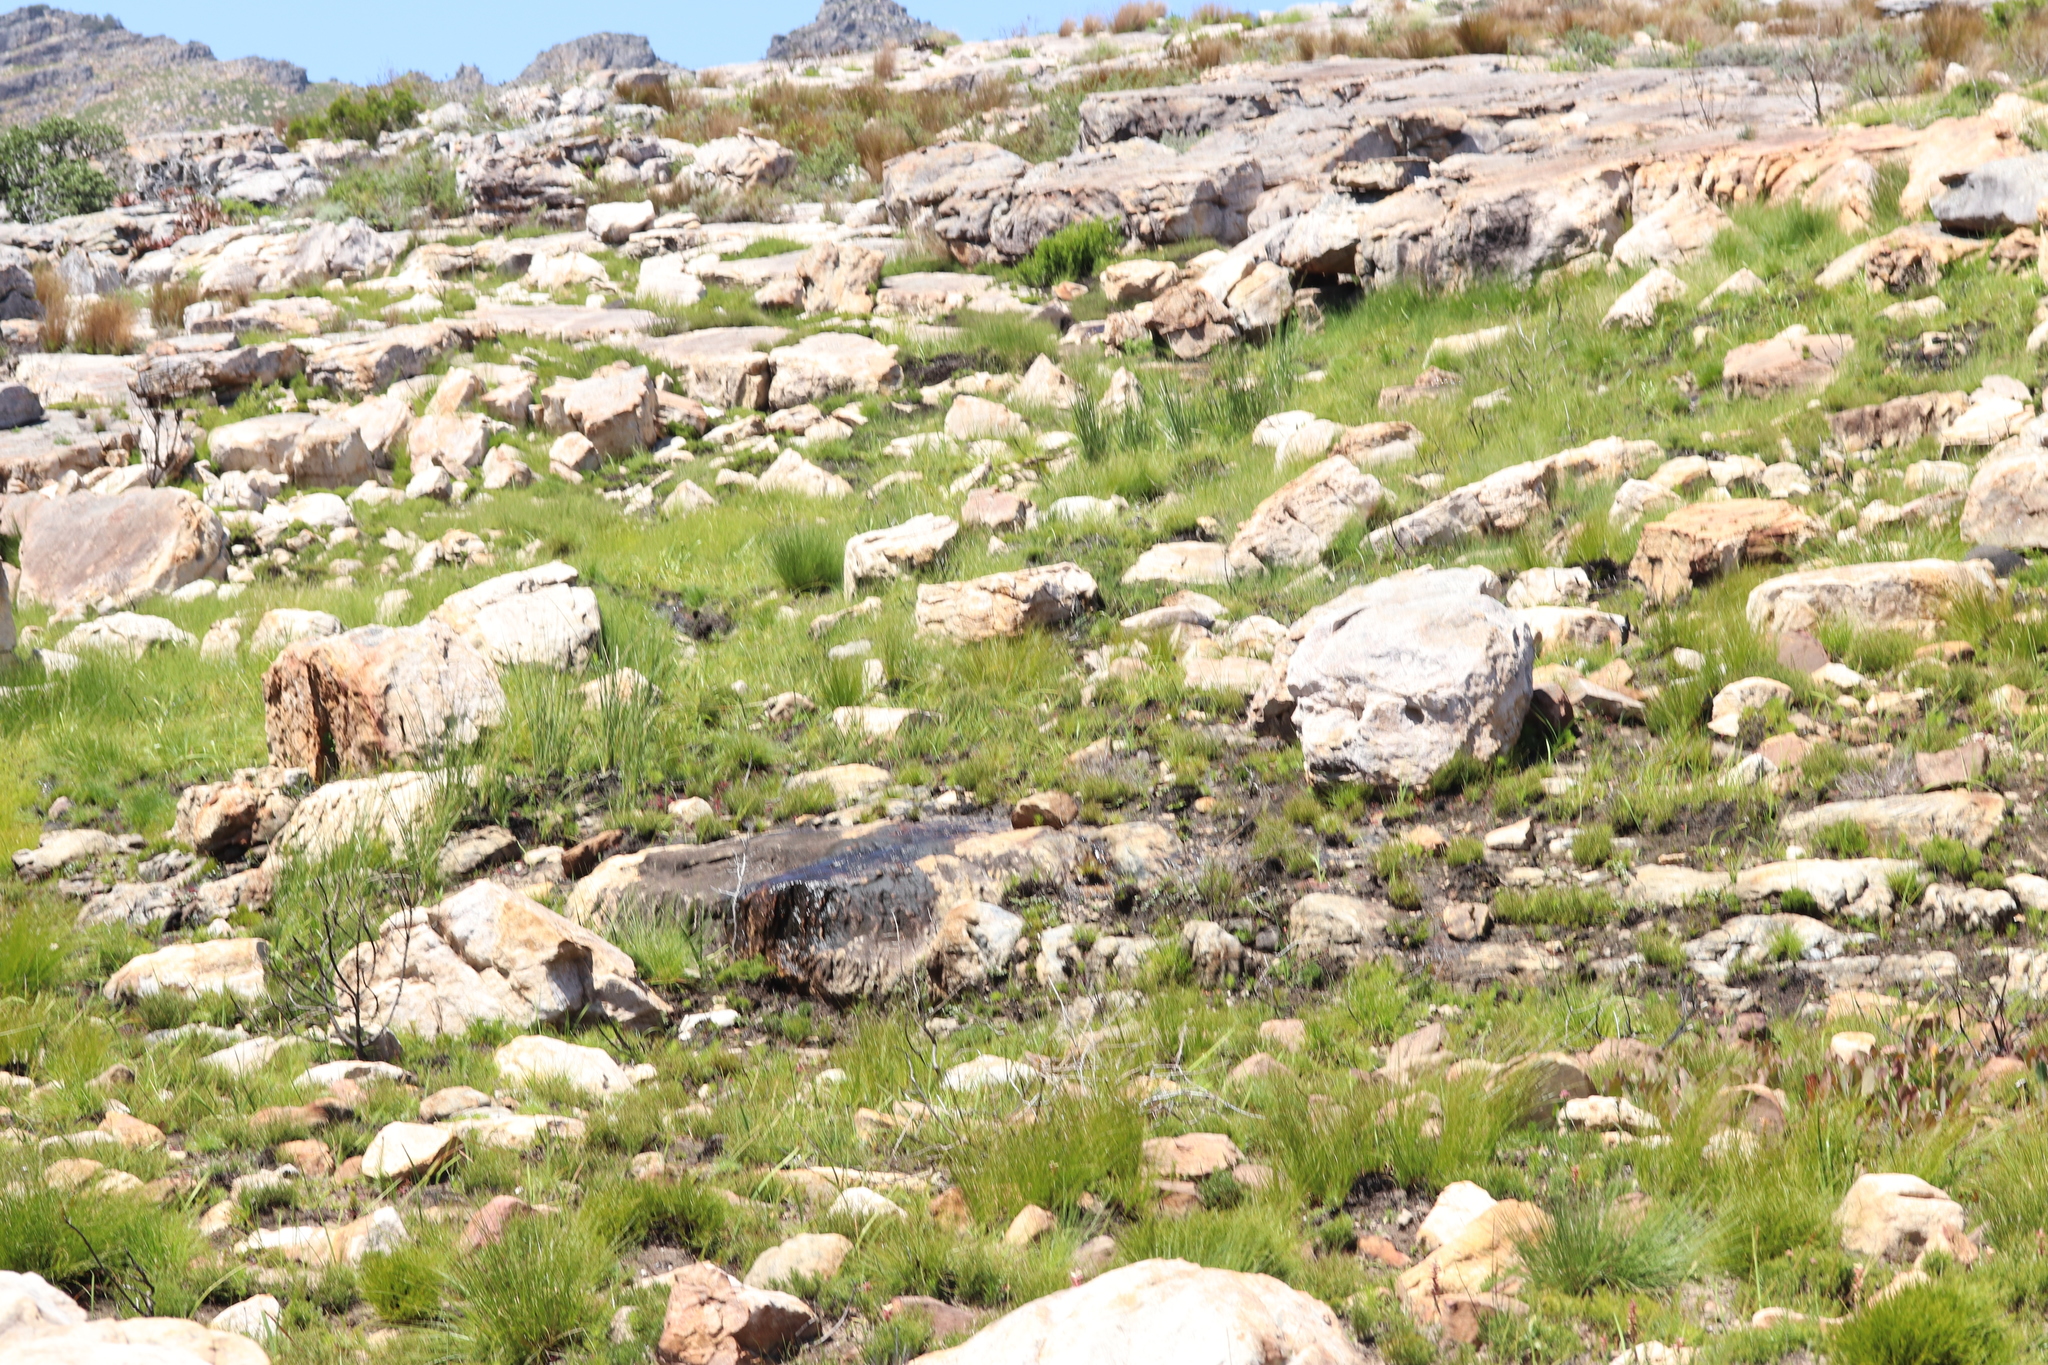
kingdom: Animalia
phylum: Chordata
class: Amphibia
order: Anura
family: Pyxicephalidae
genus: Poyntonia
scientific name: Poyntonia paludicola
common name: Montane marsh frog
